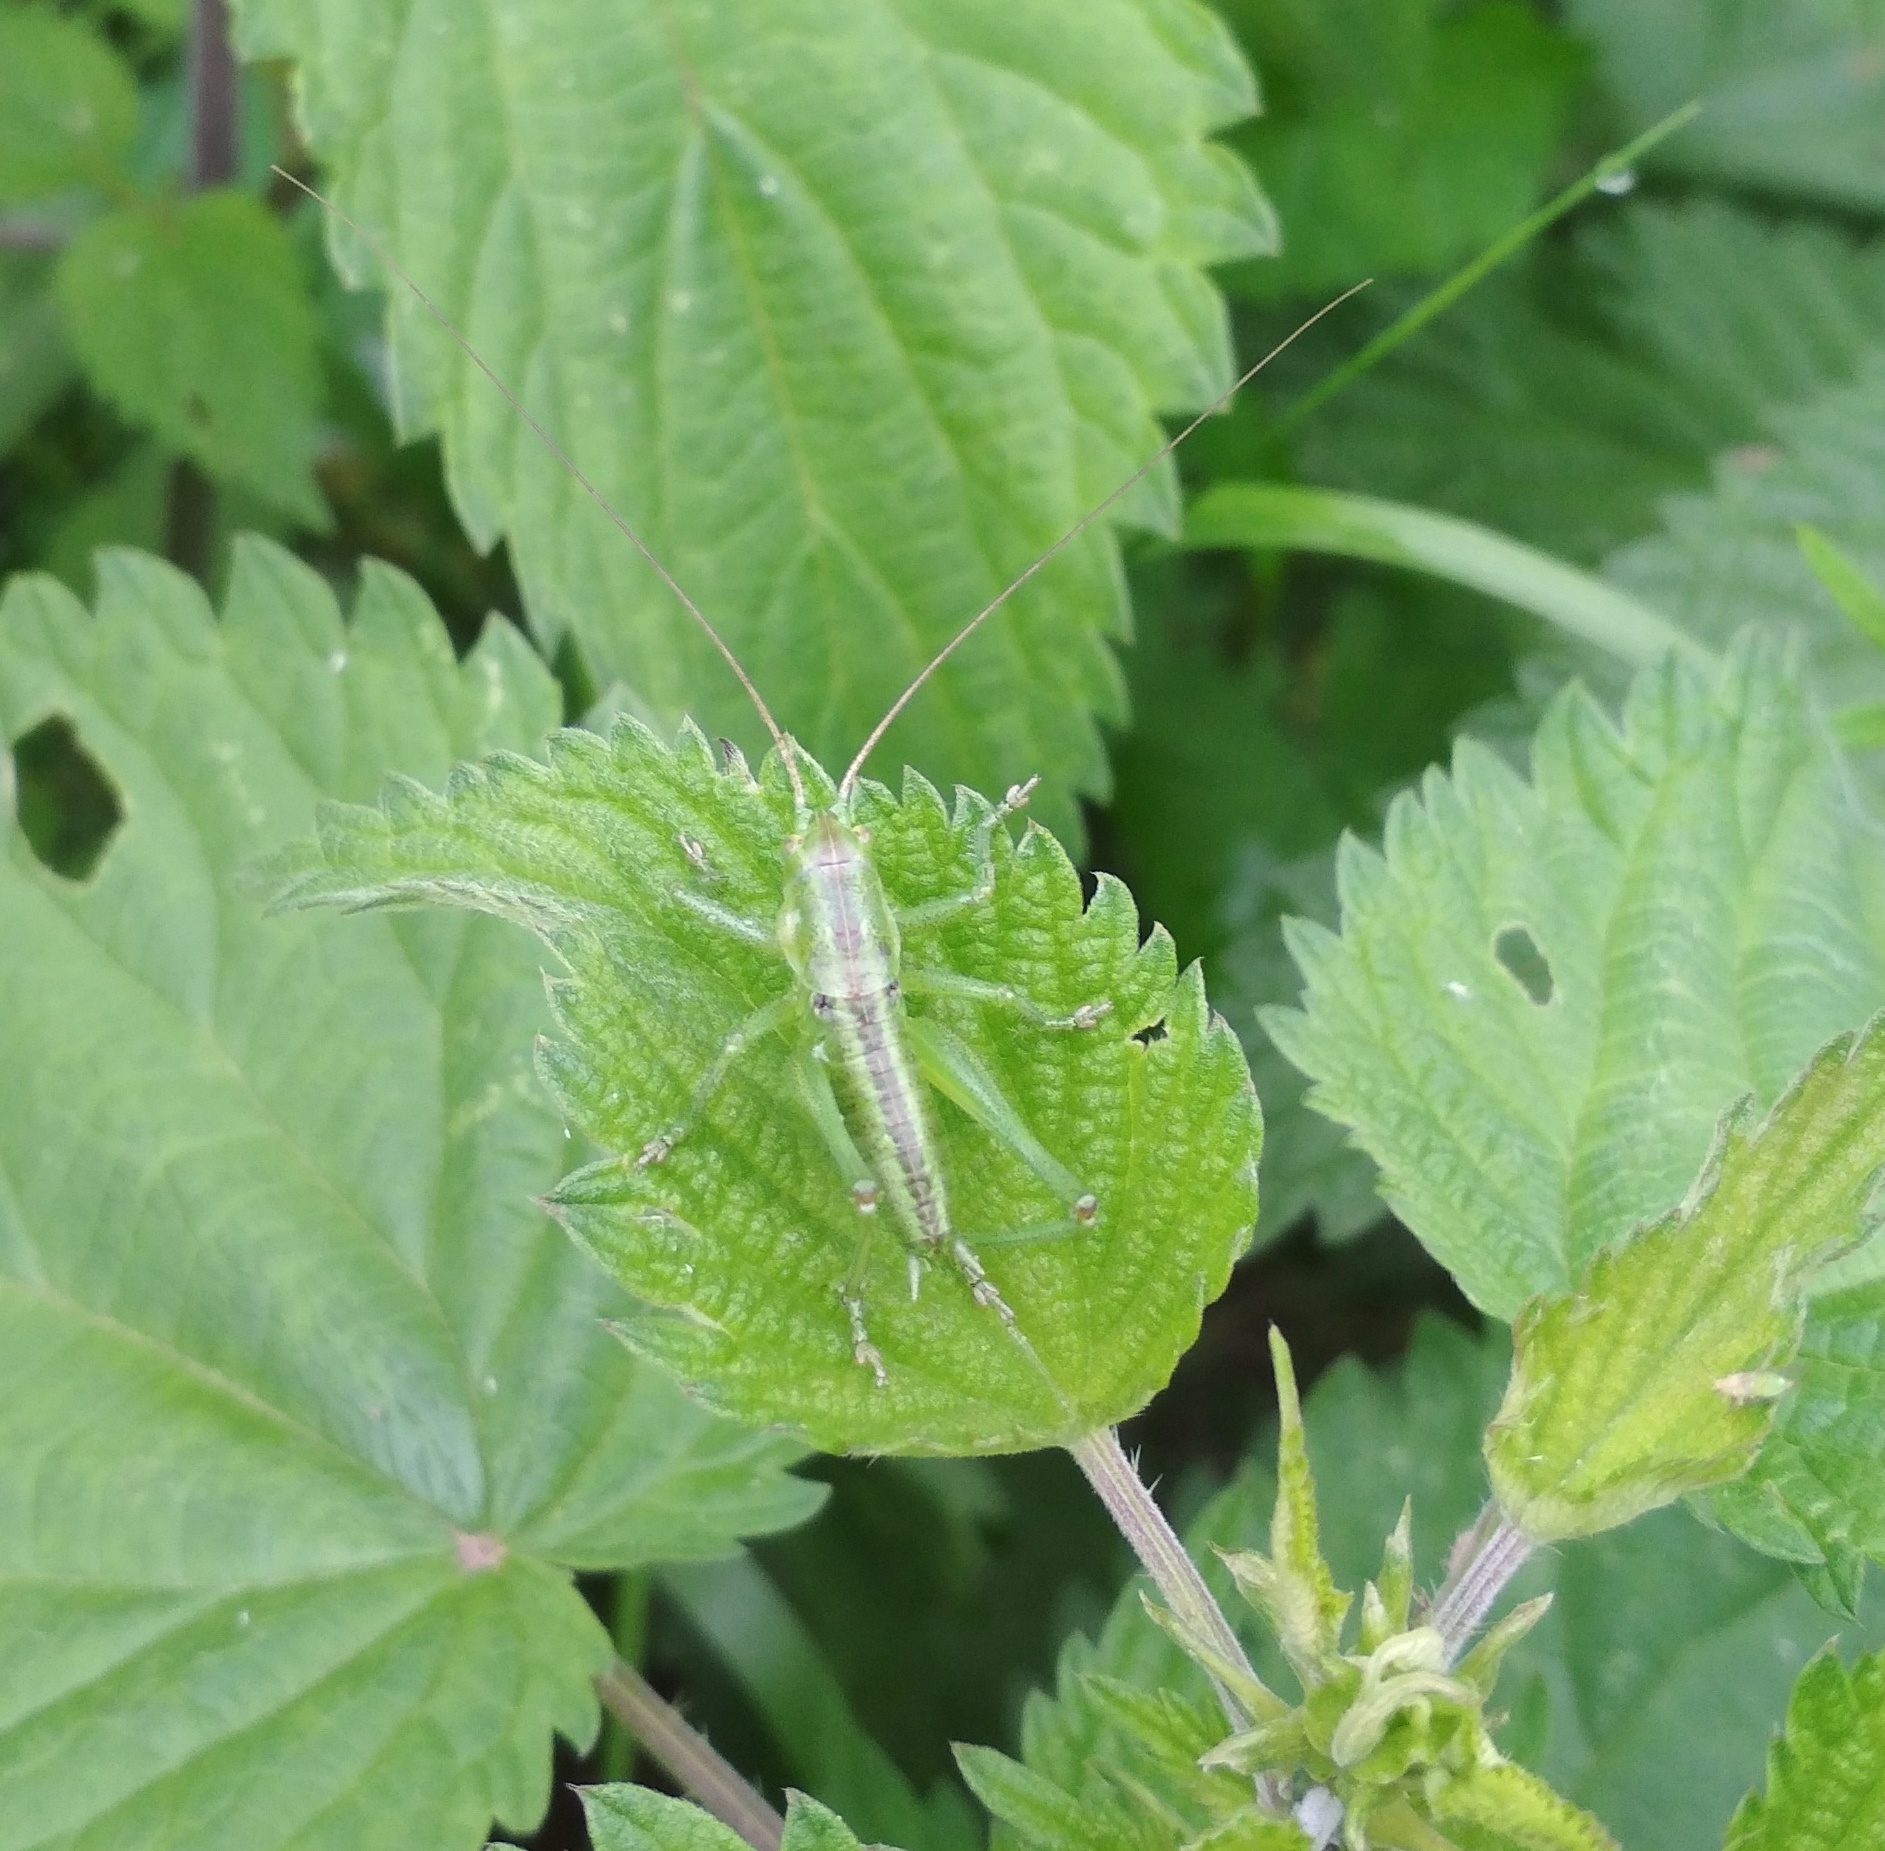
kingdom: Animalia
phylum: Arthropoda
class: Insecta
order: Orthoptera
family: Tettigoniidae
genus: Tettigonia
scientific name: Tettigonia viridissima
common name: Great green bush-cricket
